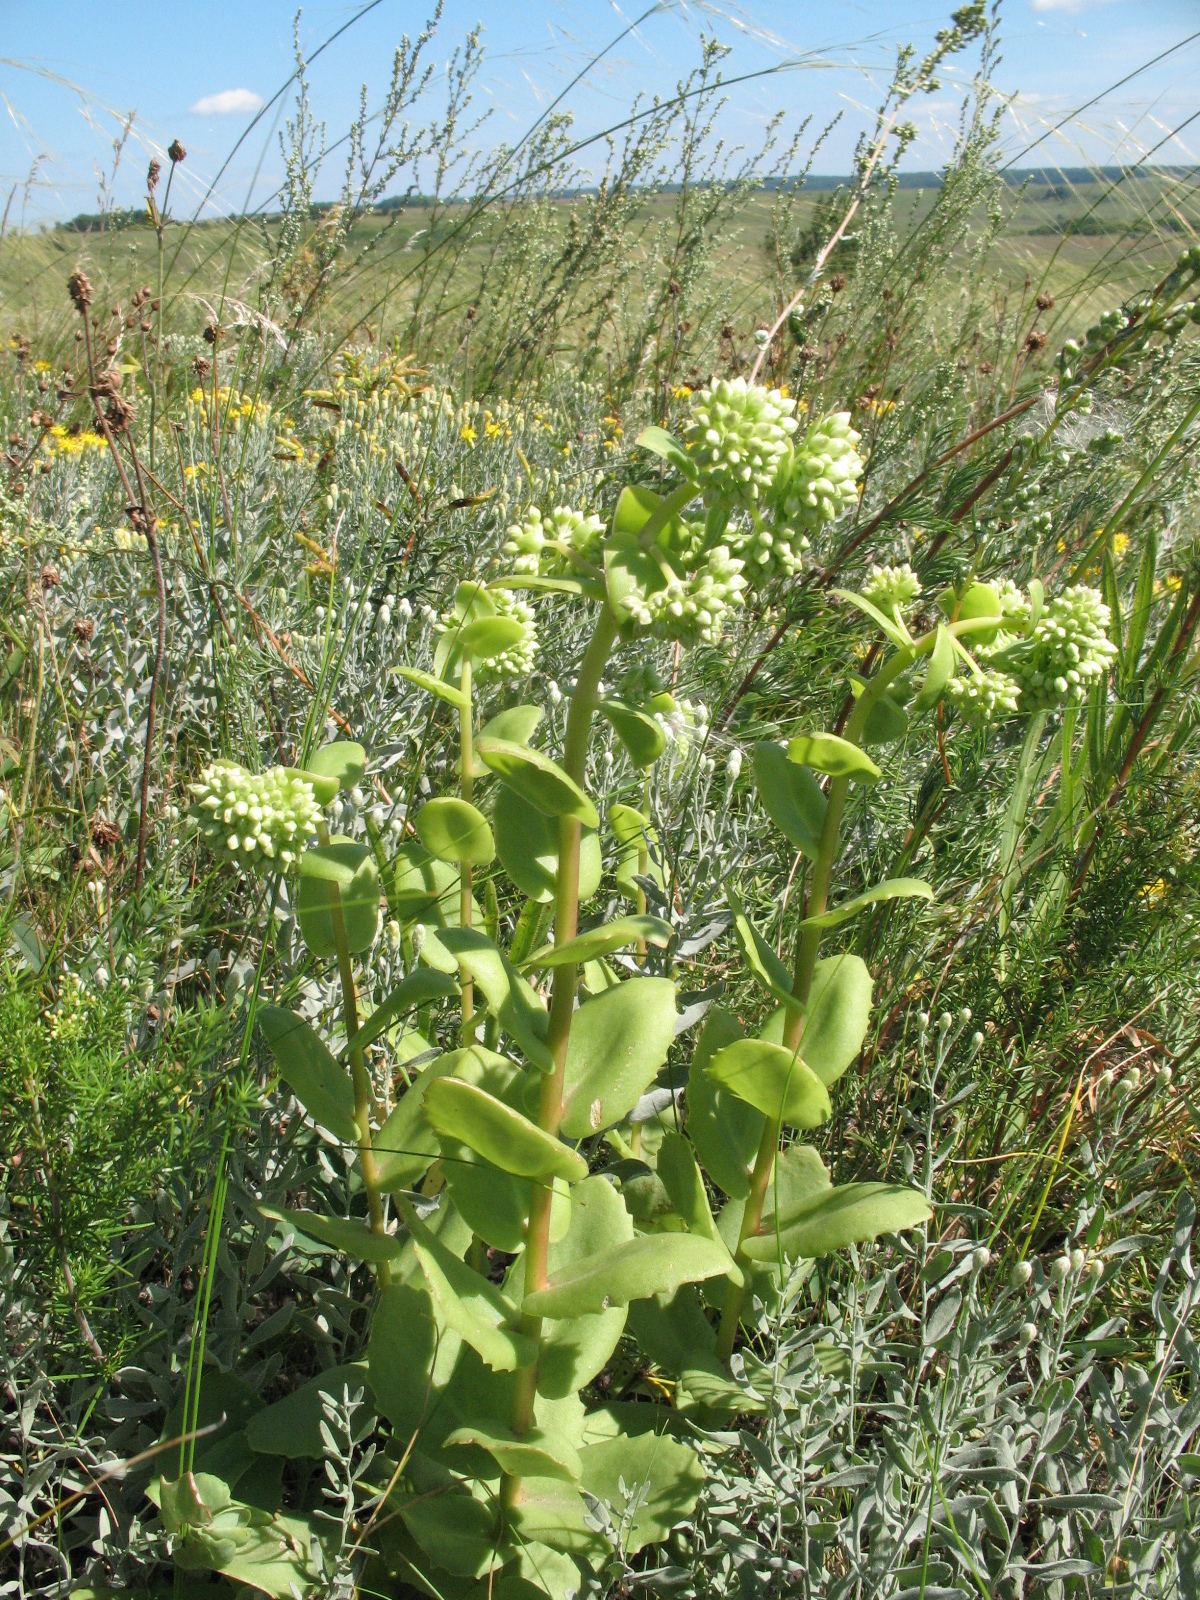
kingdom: Plantae
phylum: Tracheophyta
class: Magnoliopsida
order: Saxifragales
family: Crassulaceae
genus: Hylotelephium
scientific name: Hylotelephium maximum
